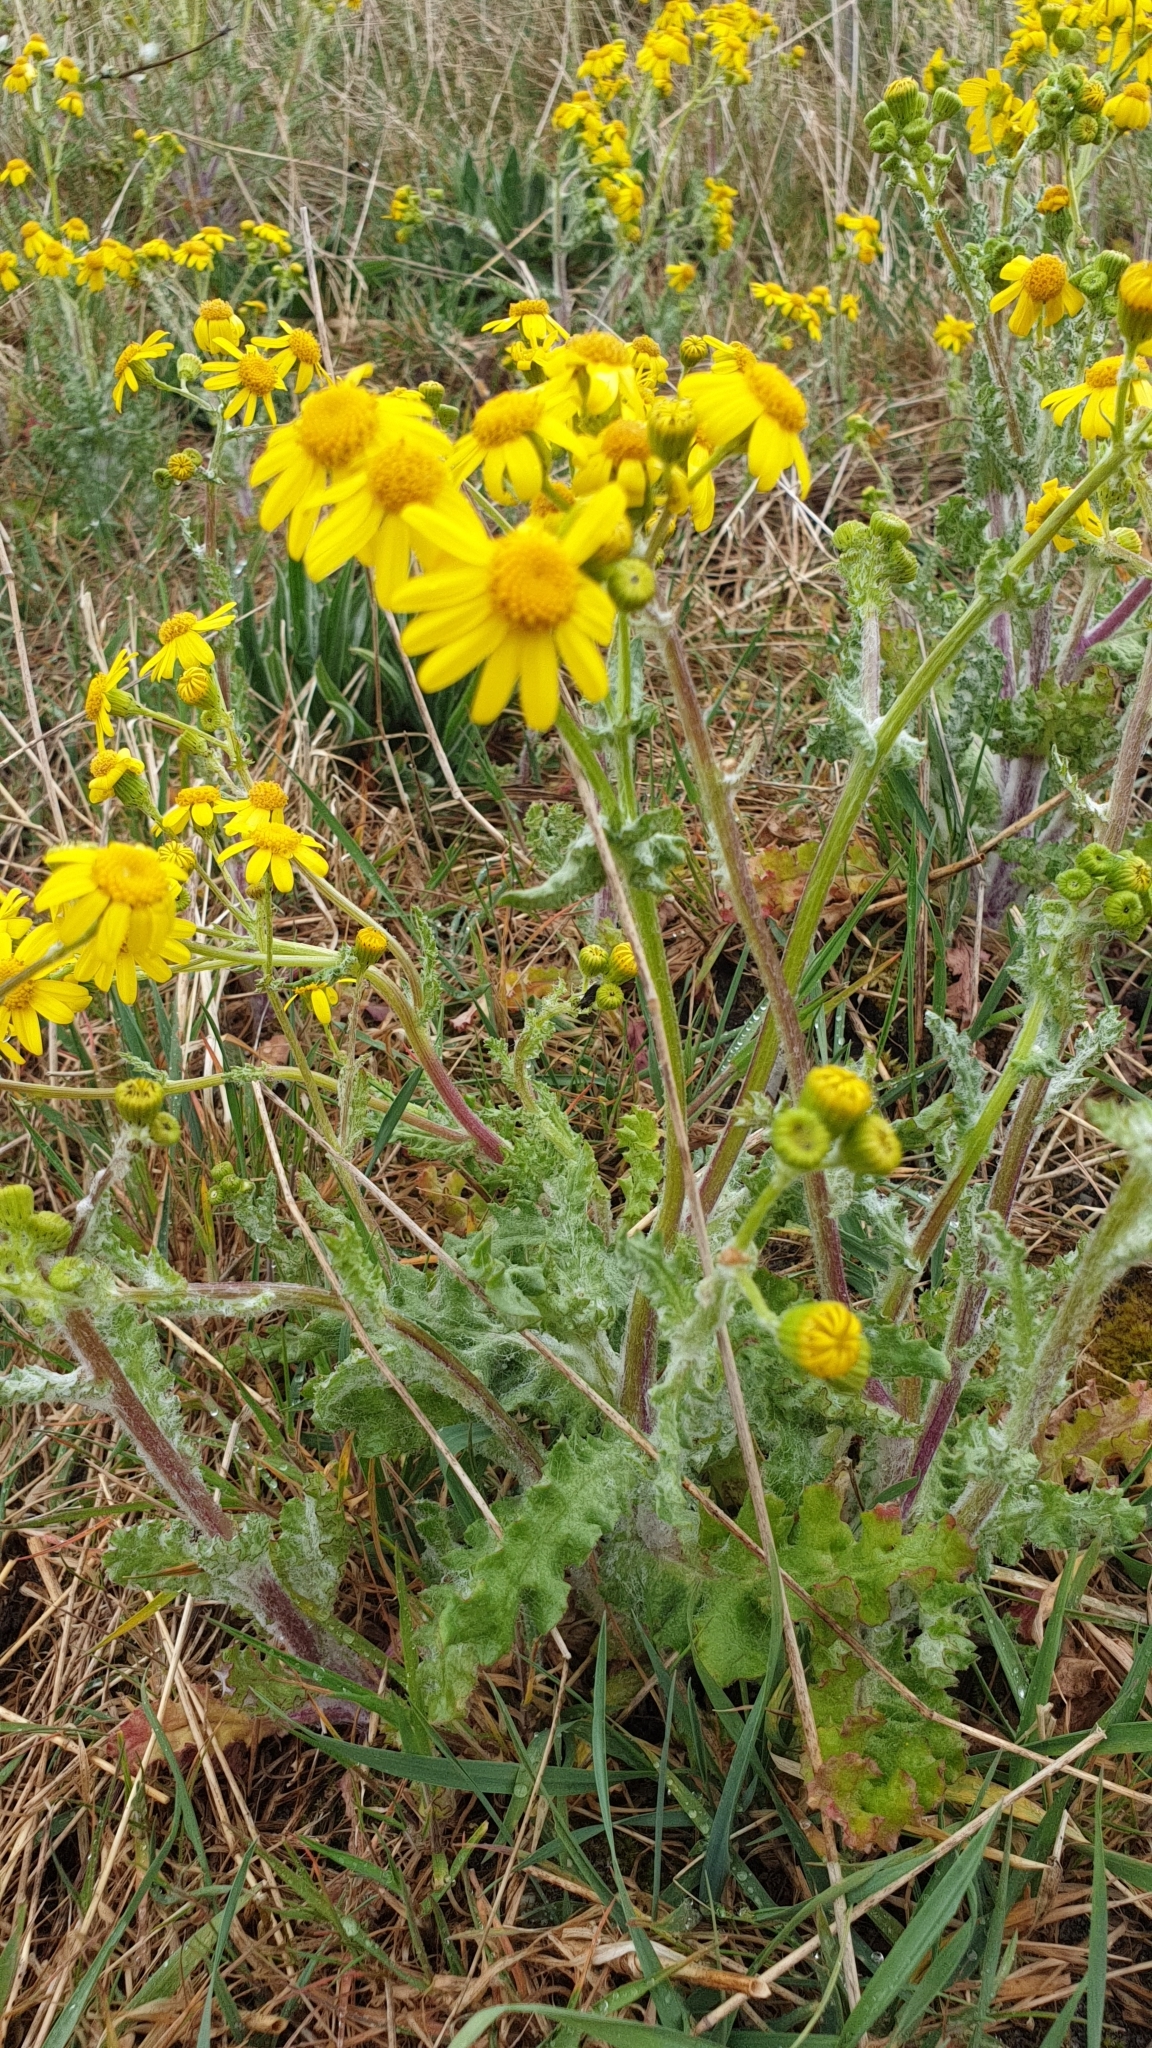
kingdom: Plantae
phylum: Tracheophyta
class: Magnoliopsida
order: Asterales
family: Asteraceae
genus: Senecio
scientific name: Senecio vernalis
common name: Eastern groundsel
